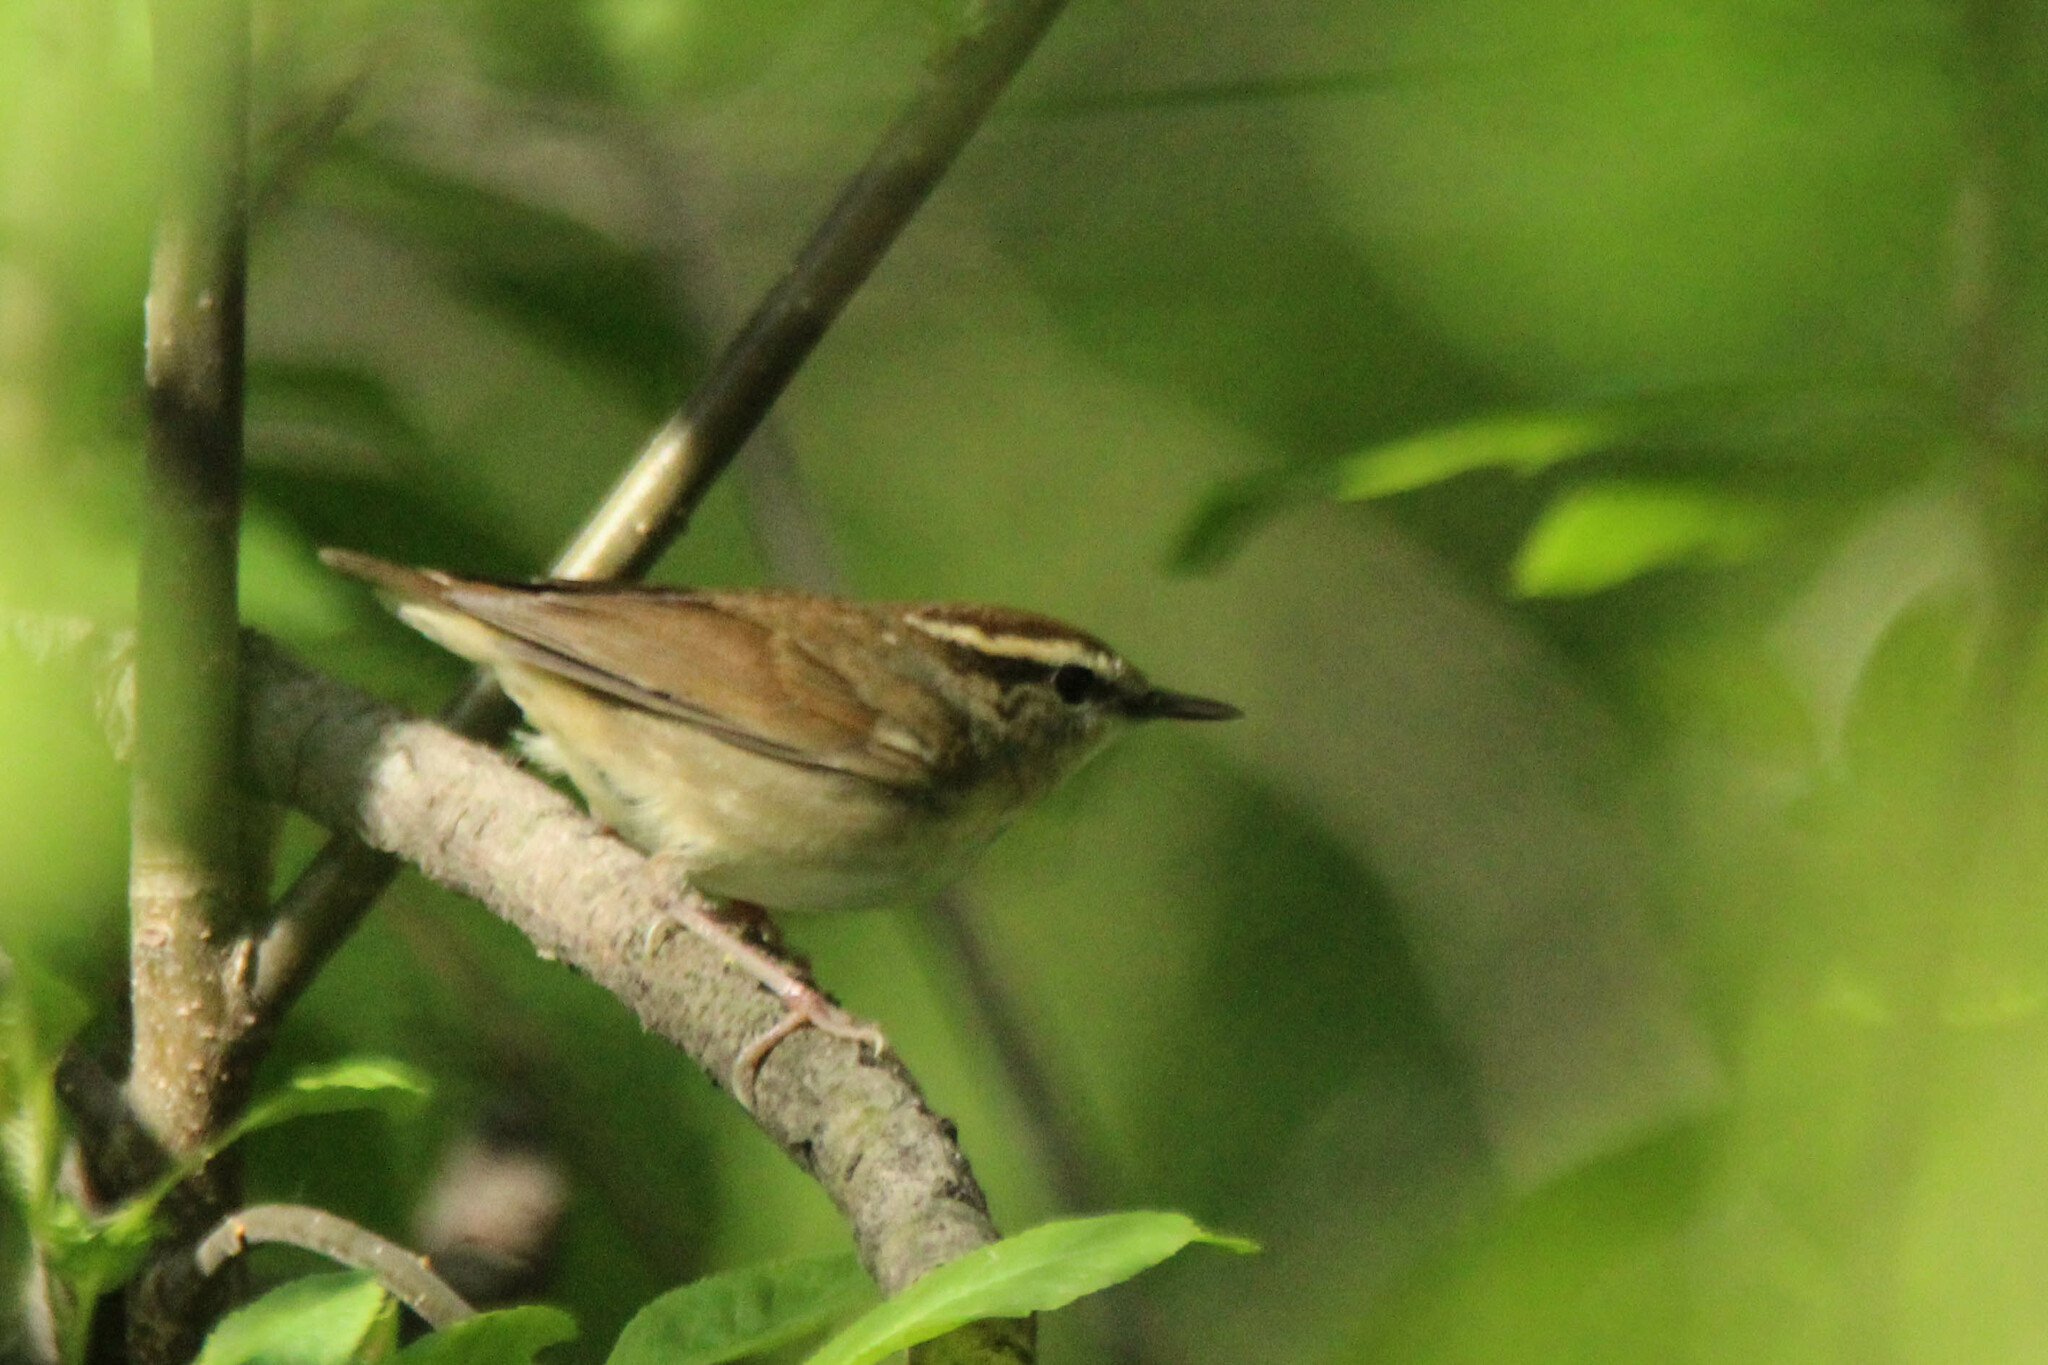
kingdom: Animalia
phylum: Chordata
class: Aves
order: Passeriformes
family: Cettiidae
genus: Urosphena
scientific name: Urosphena squameiceps
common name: Asian stubtail
